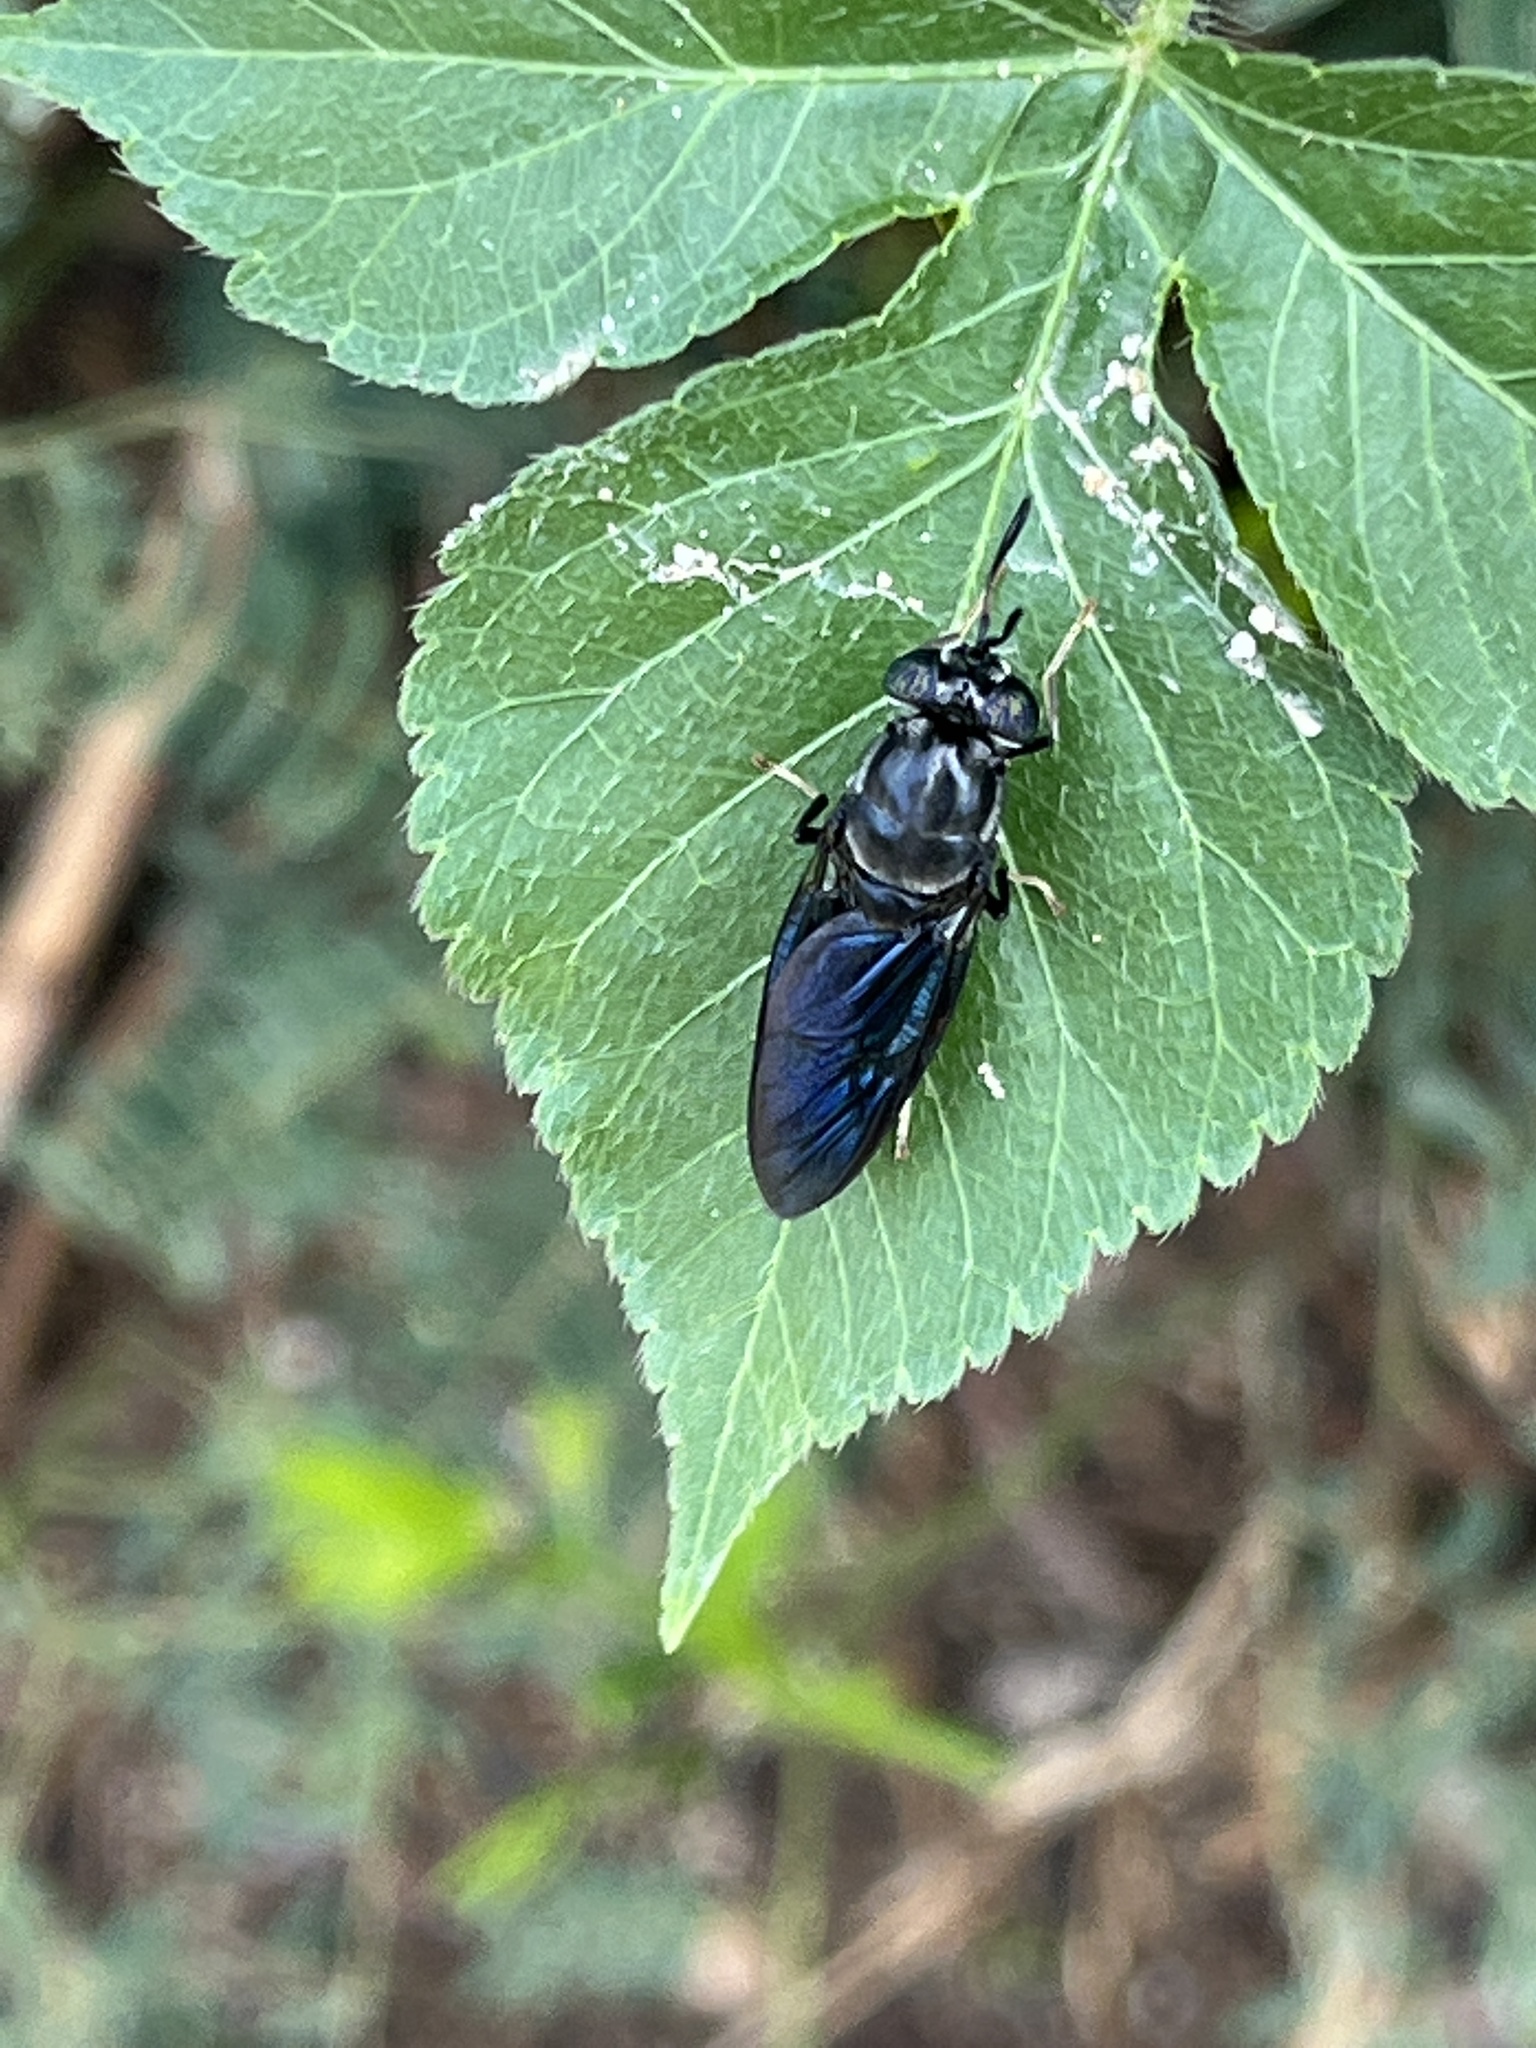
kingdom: Animalia
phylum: Arthropoda
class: Insecta
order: Diptera
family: Stratiomyidae
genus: Hermetia
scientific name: Hermetia illucens
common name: Black soldier fly
